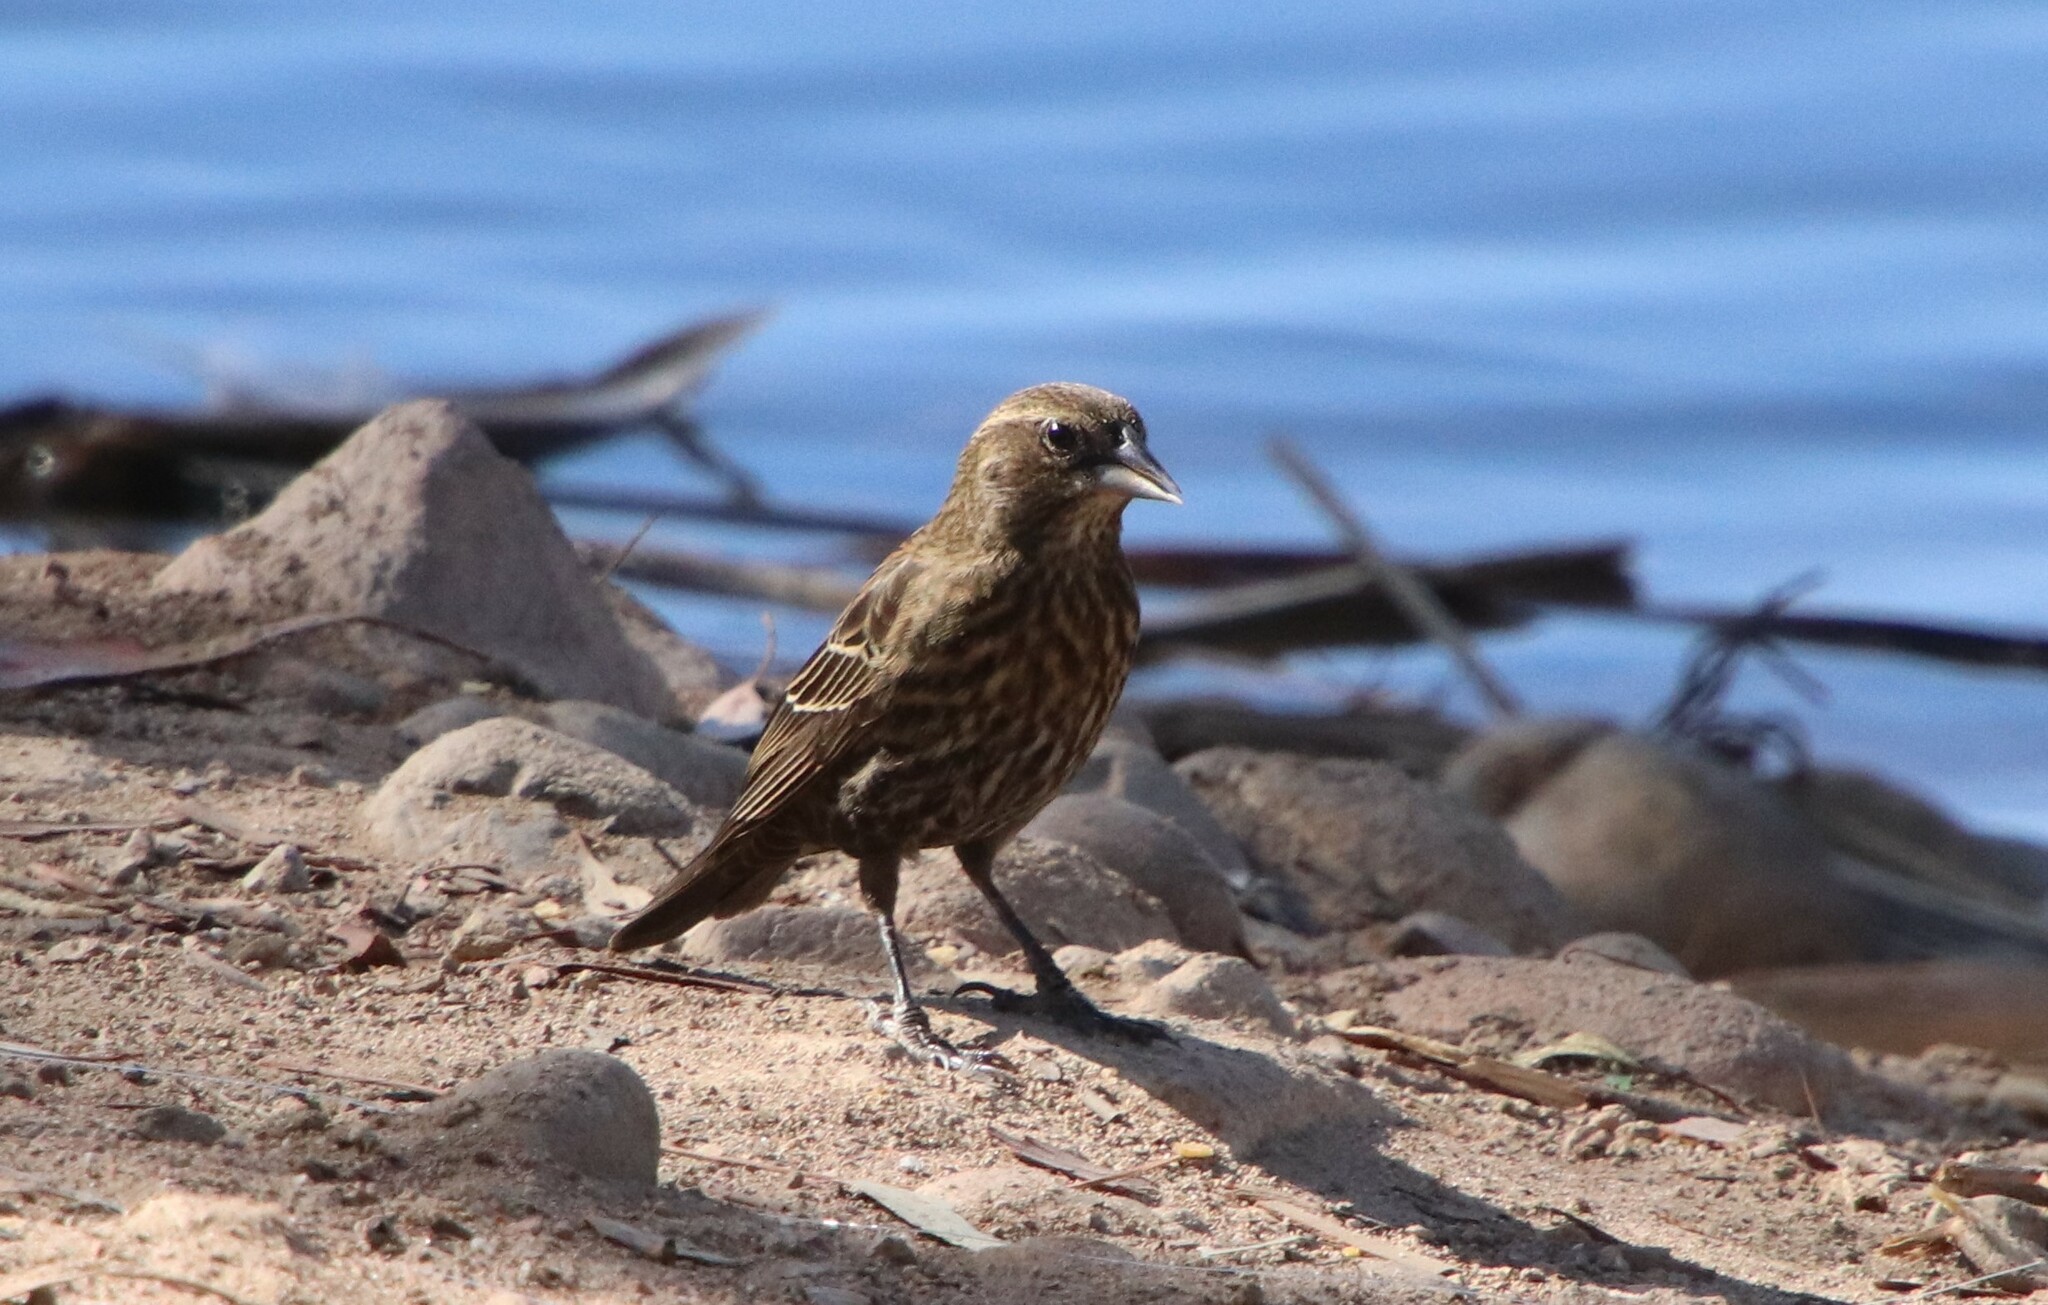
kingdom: Animalia
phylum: Chordata
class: Aves
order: Passeriformes
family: Icteridae
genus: Agelaius
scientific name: Agelaius phoeniceus
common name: Red-winged blackbird
